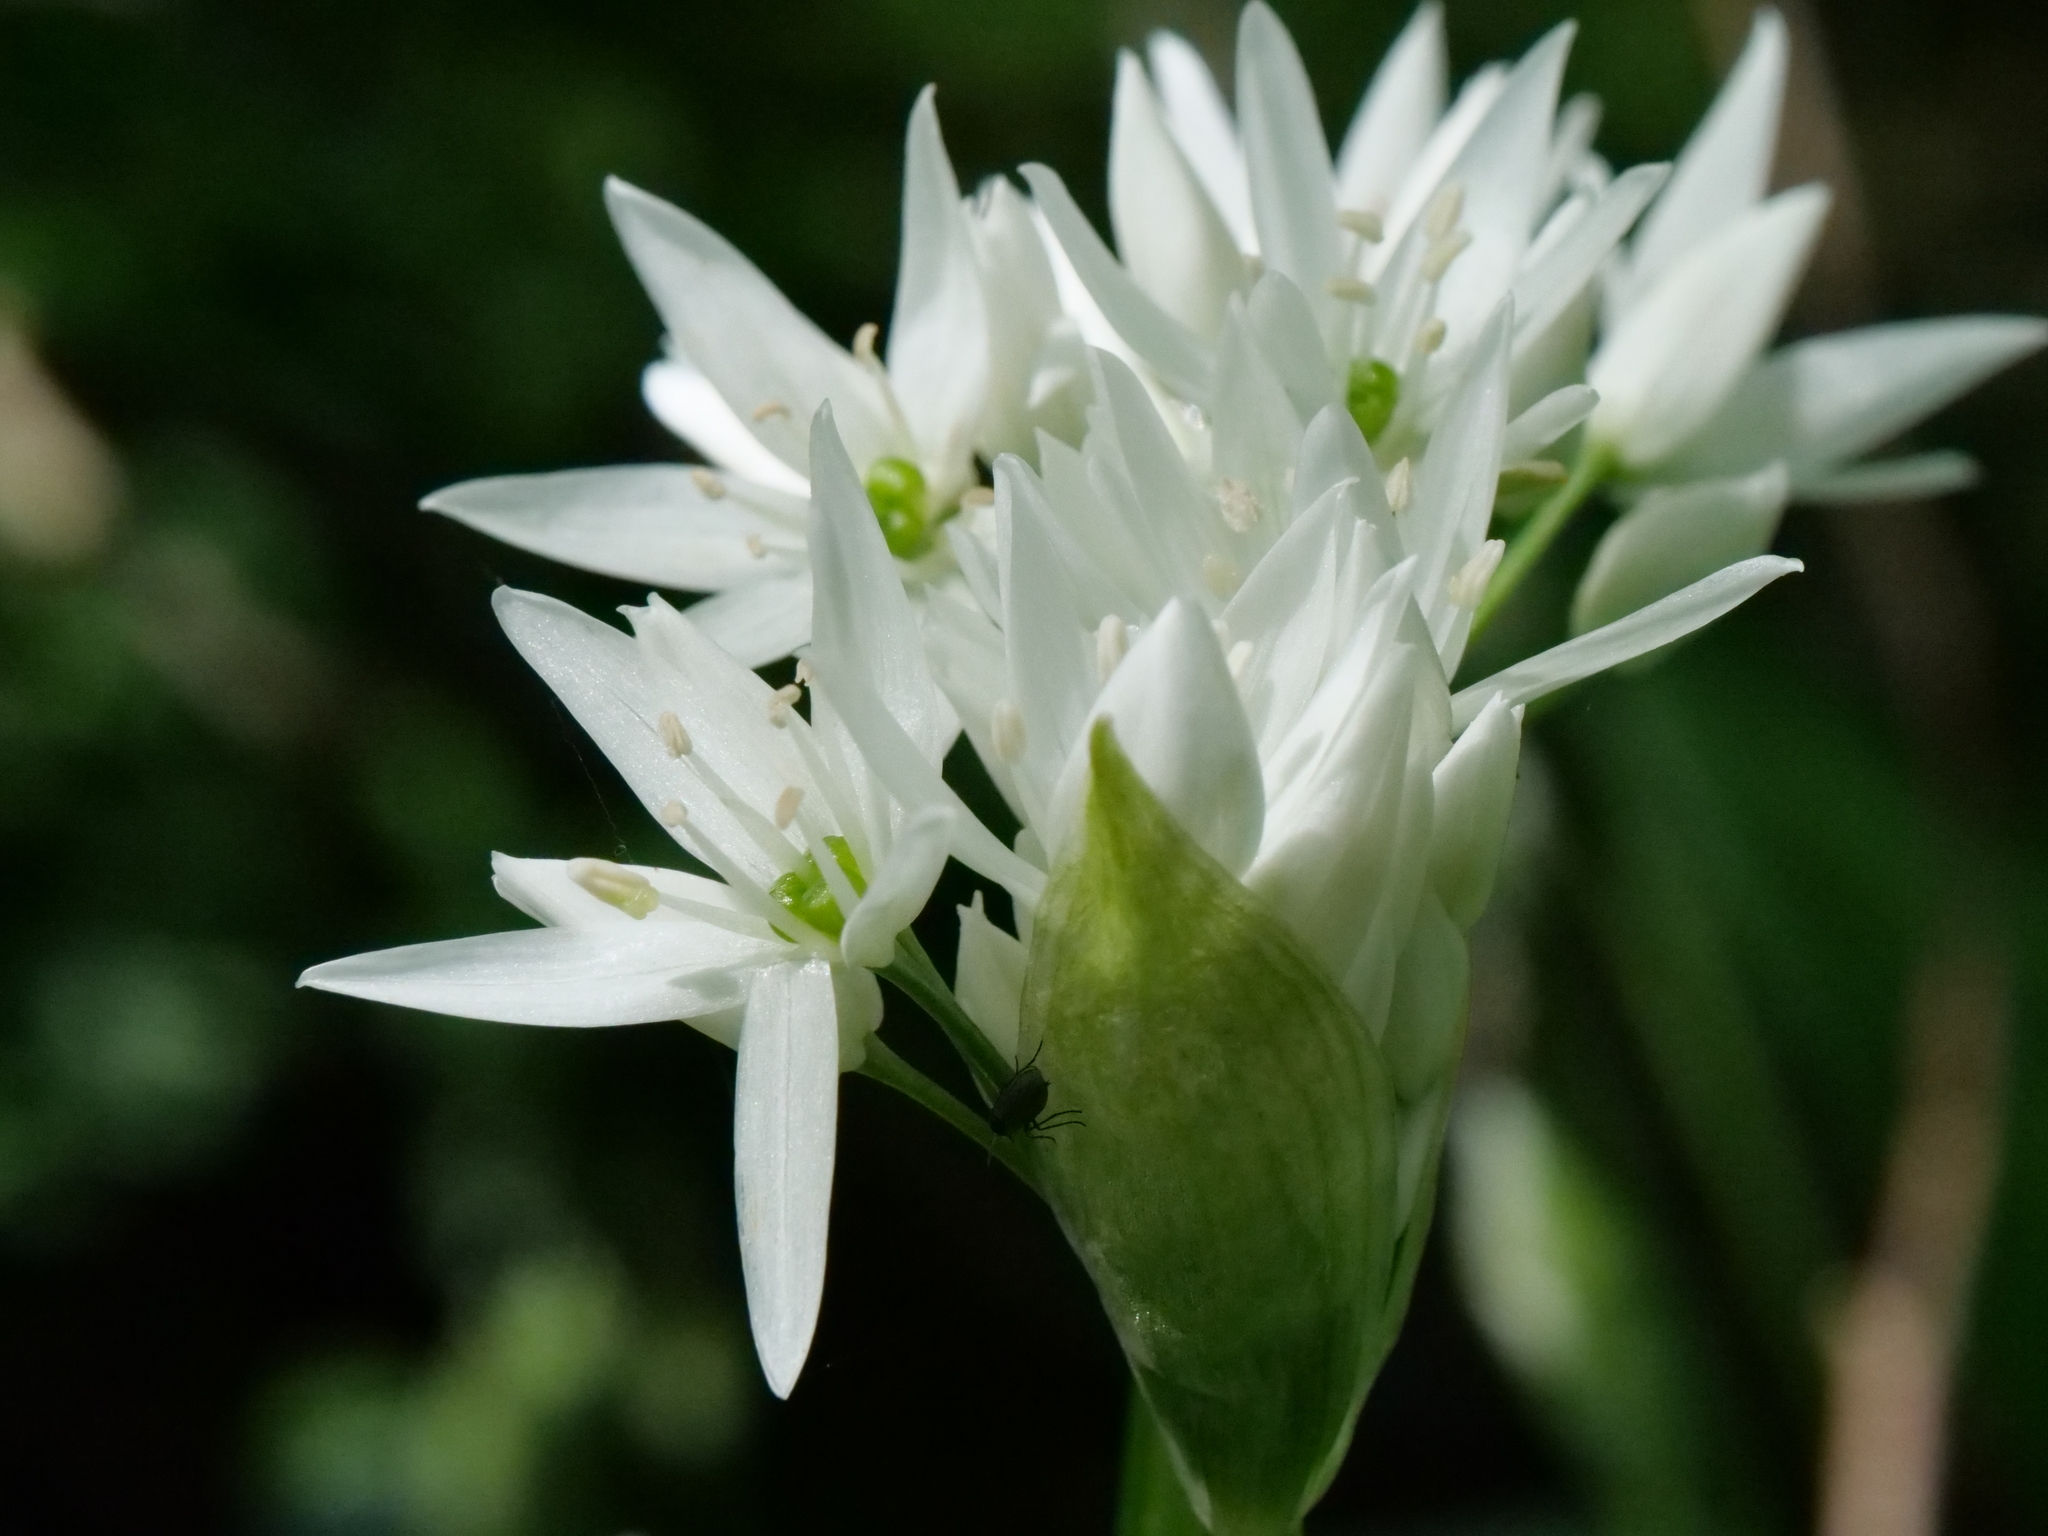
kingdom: Plantae
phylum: Tracheophyta
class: Liliopsida
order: Asparagales
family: Amaryllidaceae
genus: Allium
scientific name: Allium ursinum
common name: Ramsons
